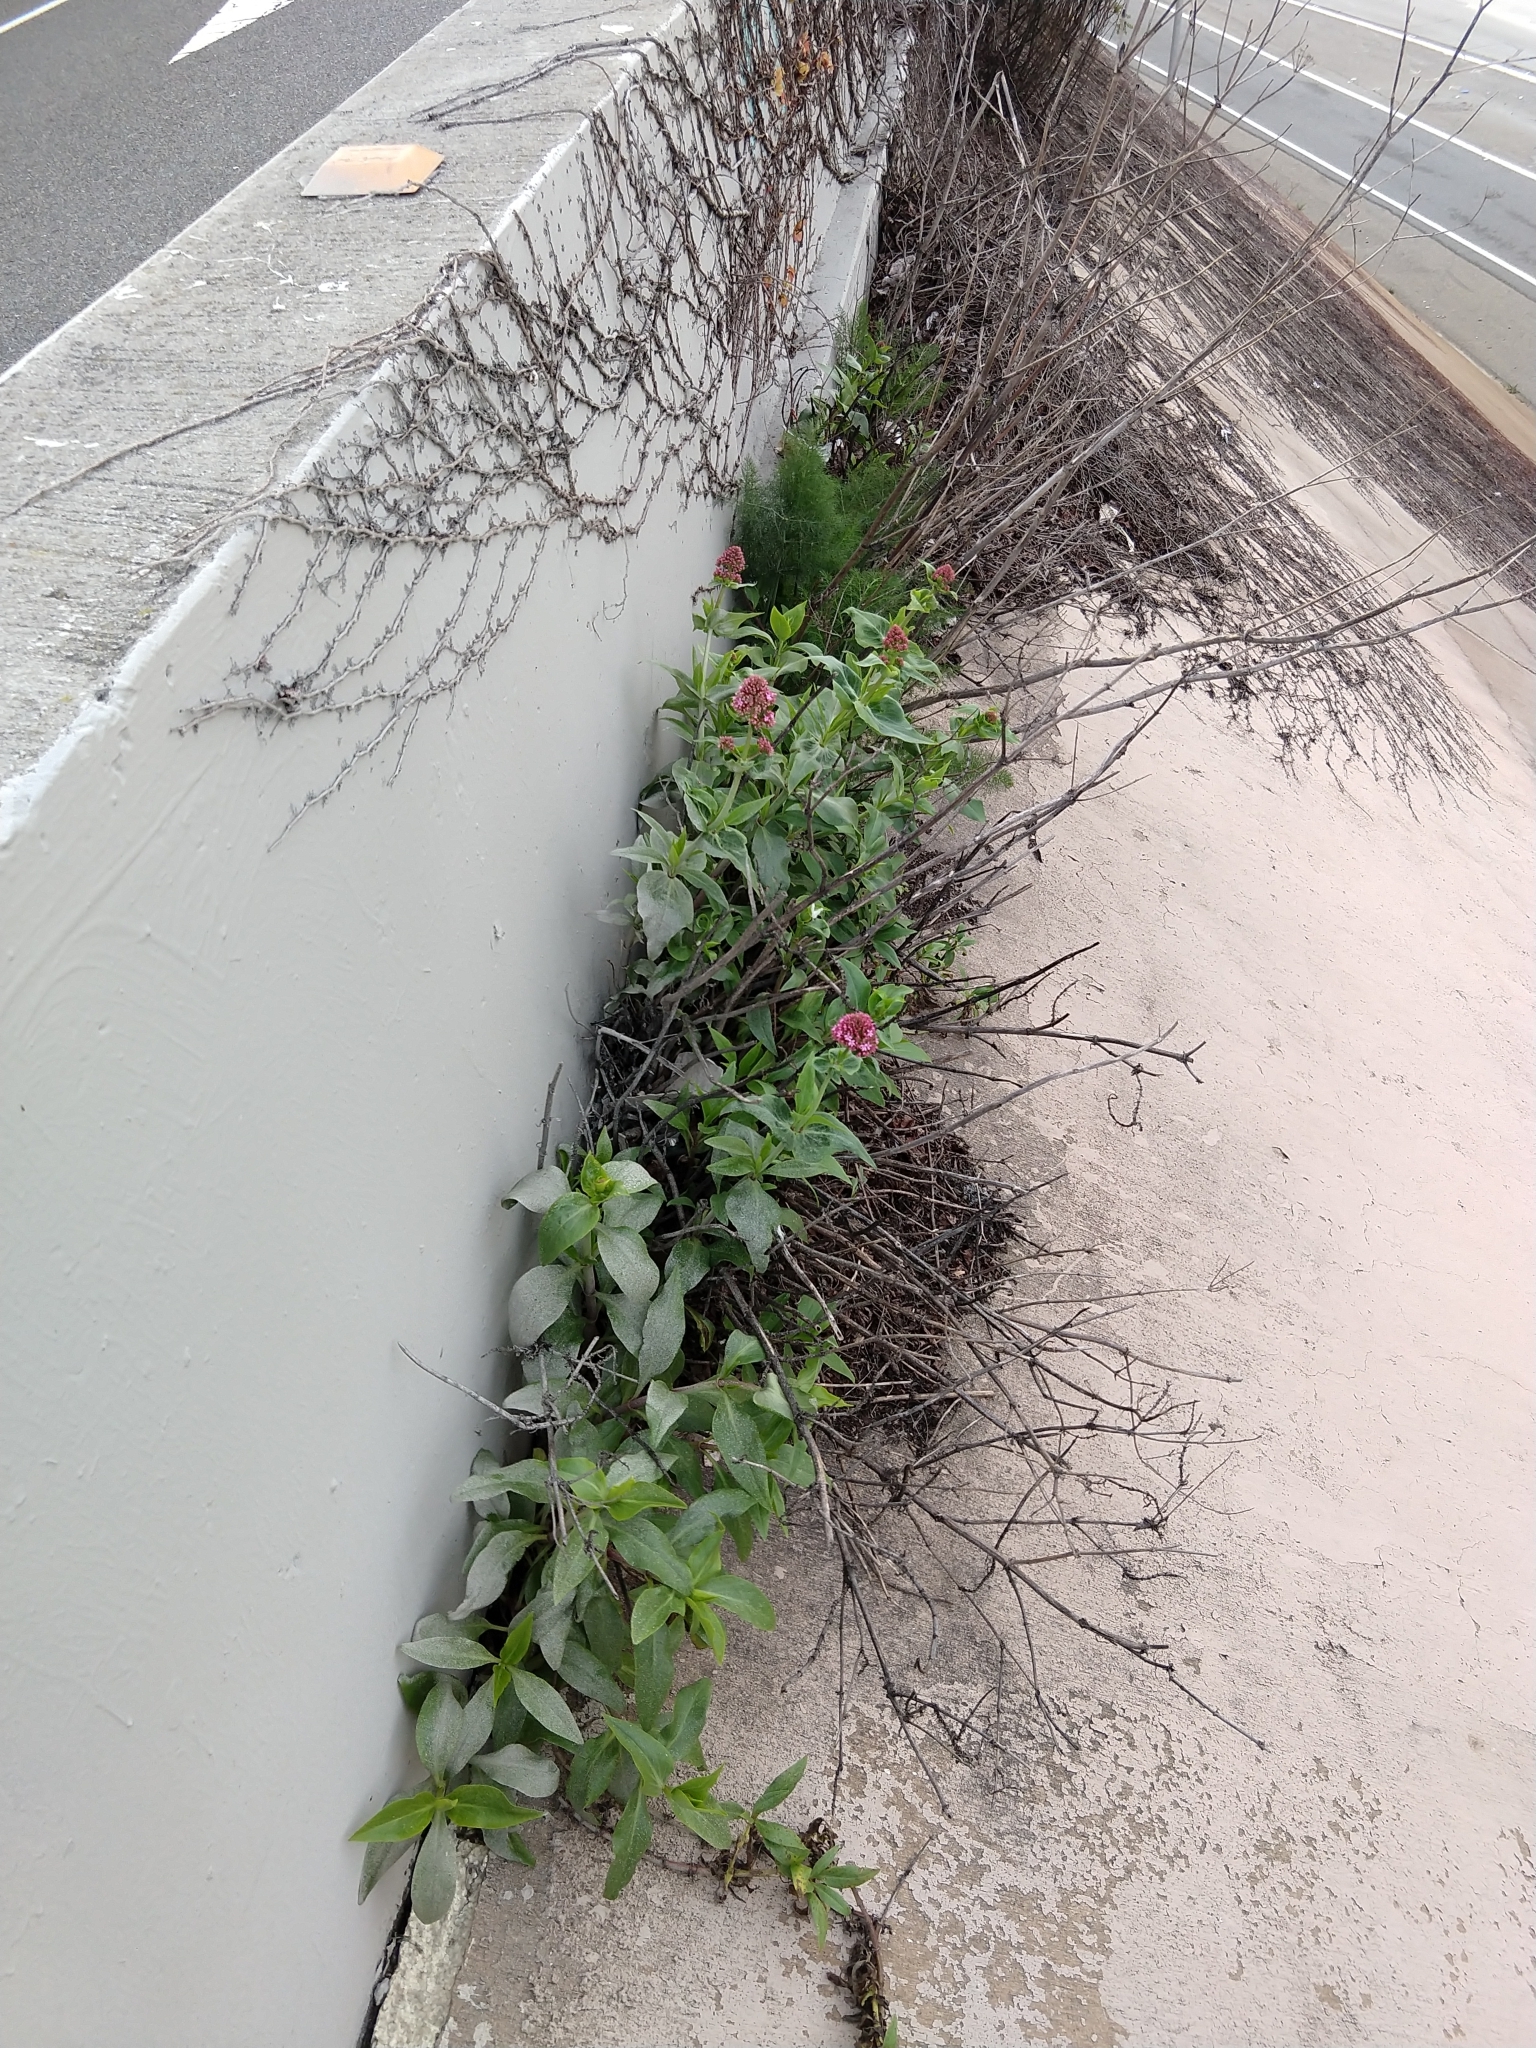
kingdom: Plantae
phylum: Tracheophyta
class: Magnoliopsida
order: Dipsacales
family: Caprifoliaceae
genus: Centranthus
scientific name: Centranthus ruber
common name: Red valerian
